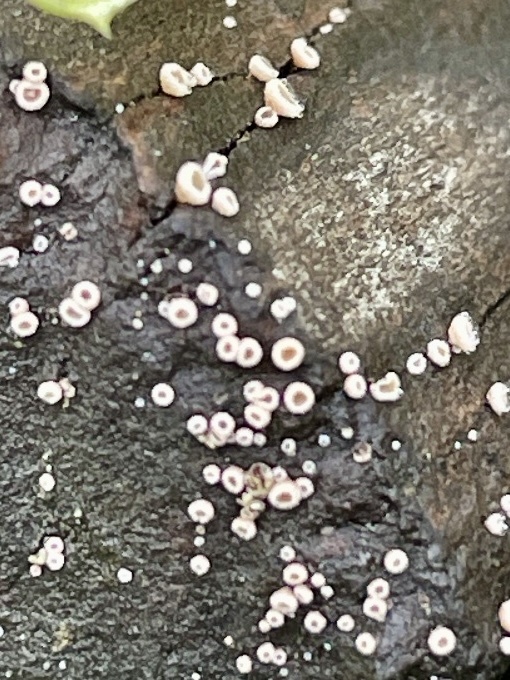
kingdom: Fungi
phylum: Ascomycota
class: Lecanoromycetes
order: Ostropales
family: Stictidaceae
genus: Stictis
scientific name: Stictis radiata
